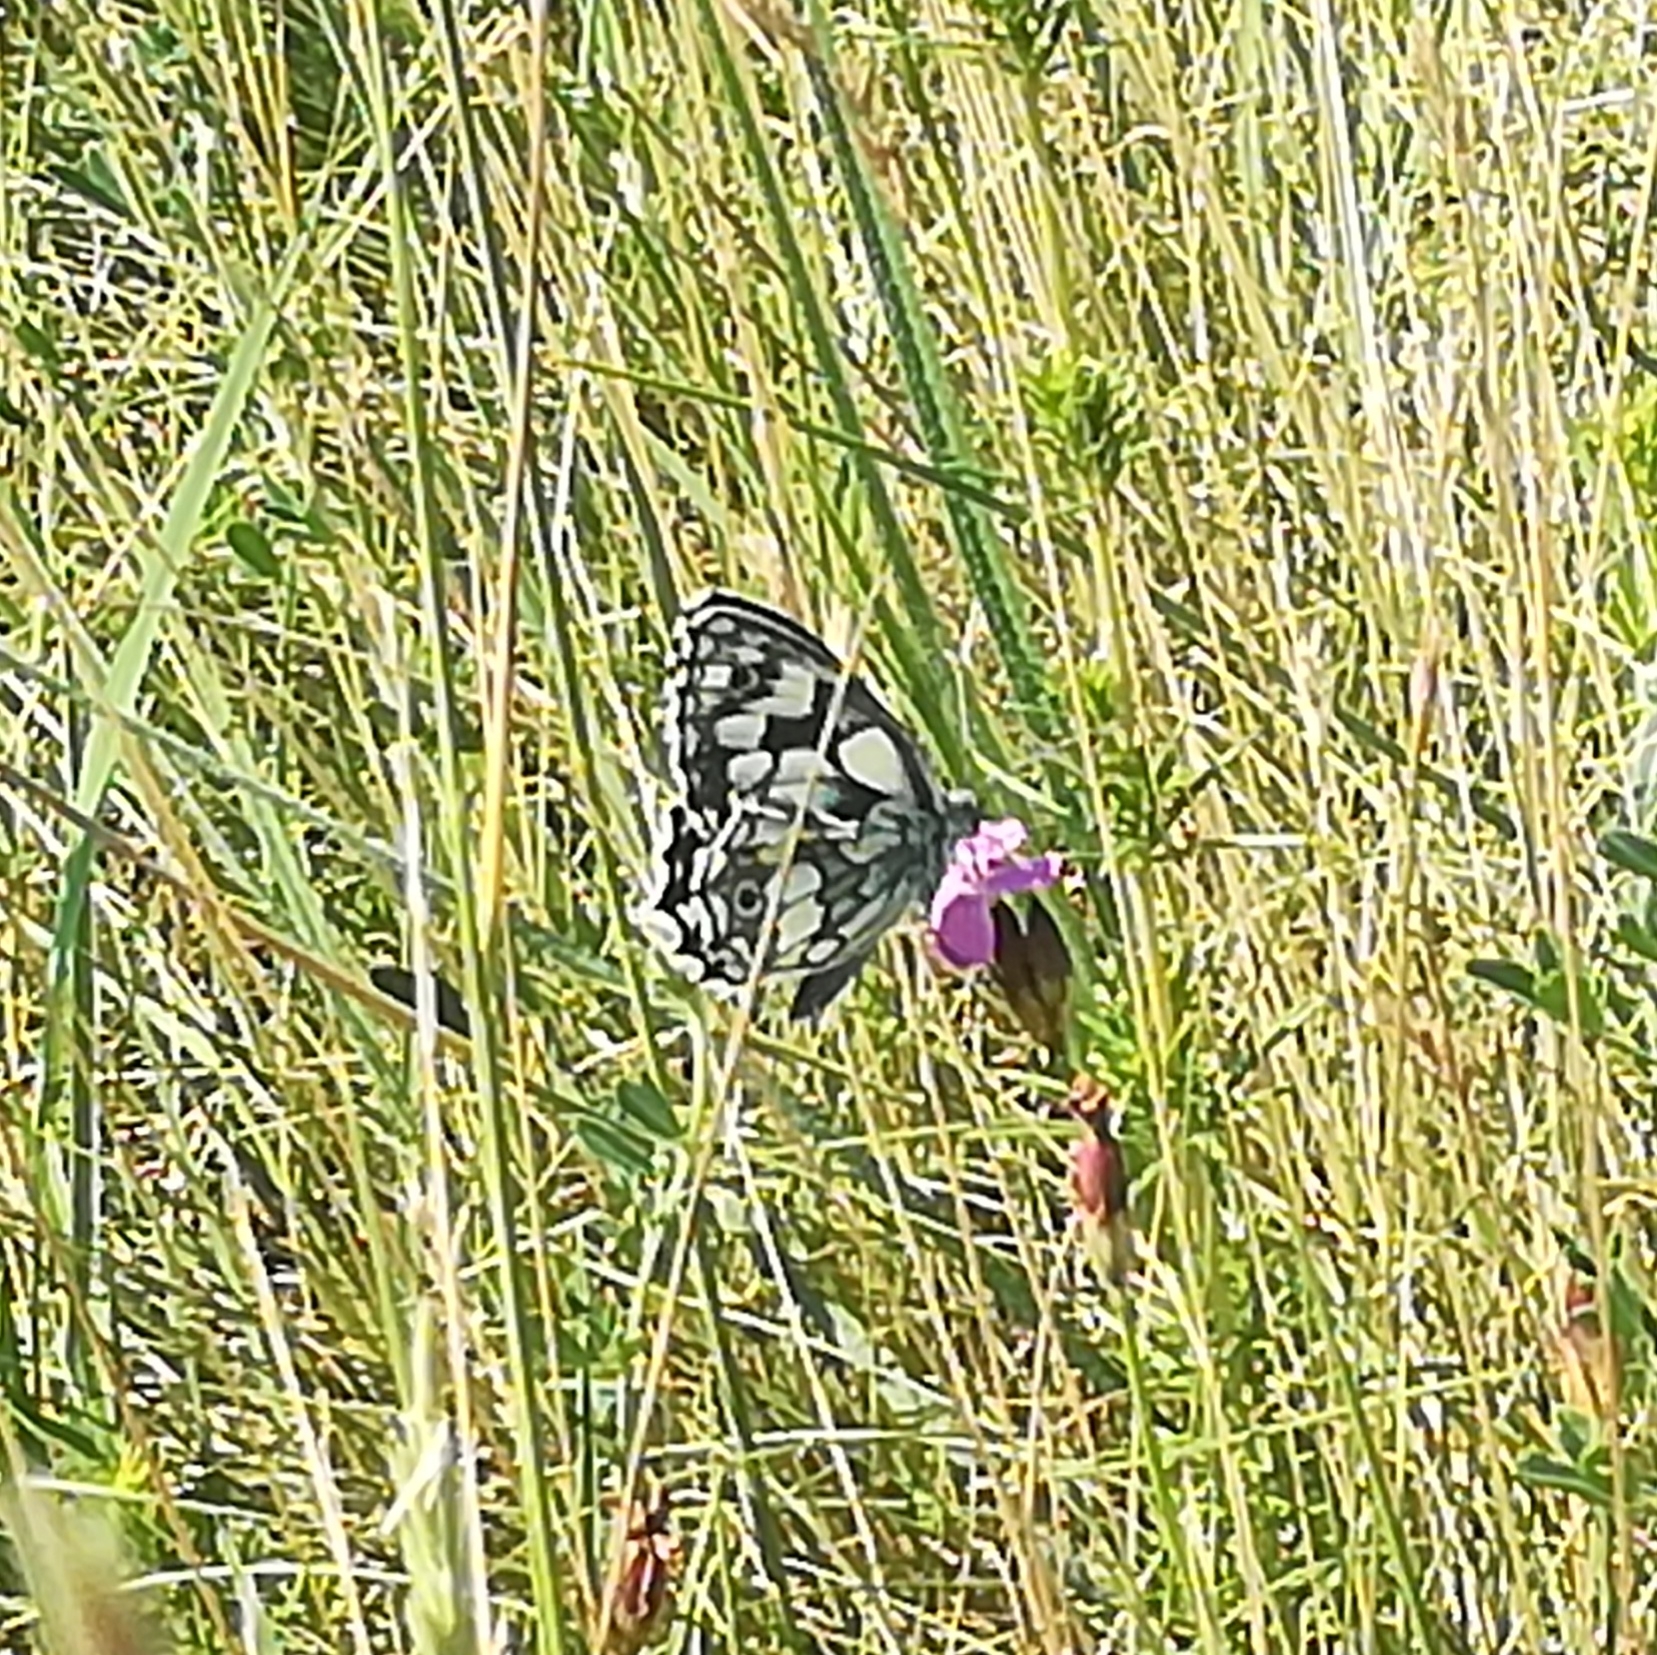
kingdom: Animalia
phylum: Arthropoda
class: Insecta
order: Lepidoptera
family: Nymphalidae
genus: Melanargia
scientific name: Melanargia galathea
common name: Marbled white
